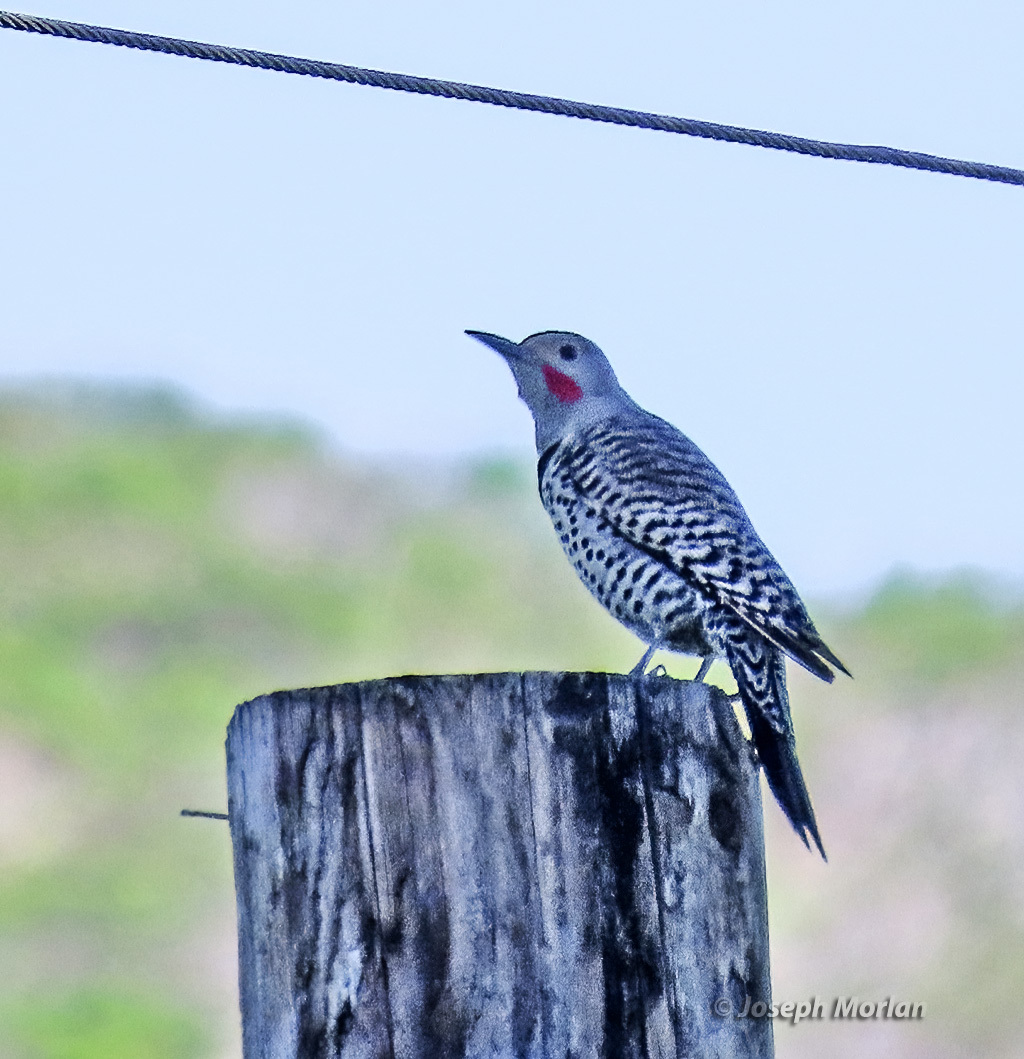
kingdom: Animalia
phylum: Chordata
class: Aves
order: Piciformes
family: Picidae
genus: Colaptes
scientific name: Colaptes auratus
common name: Northern flicker
